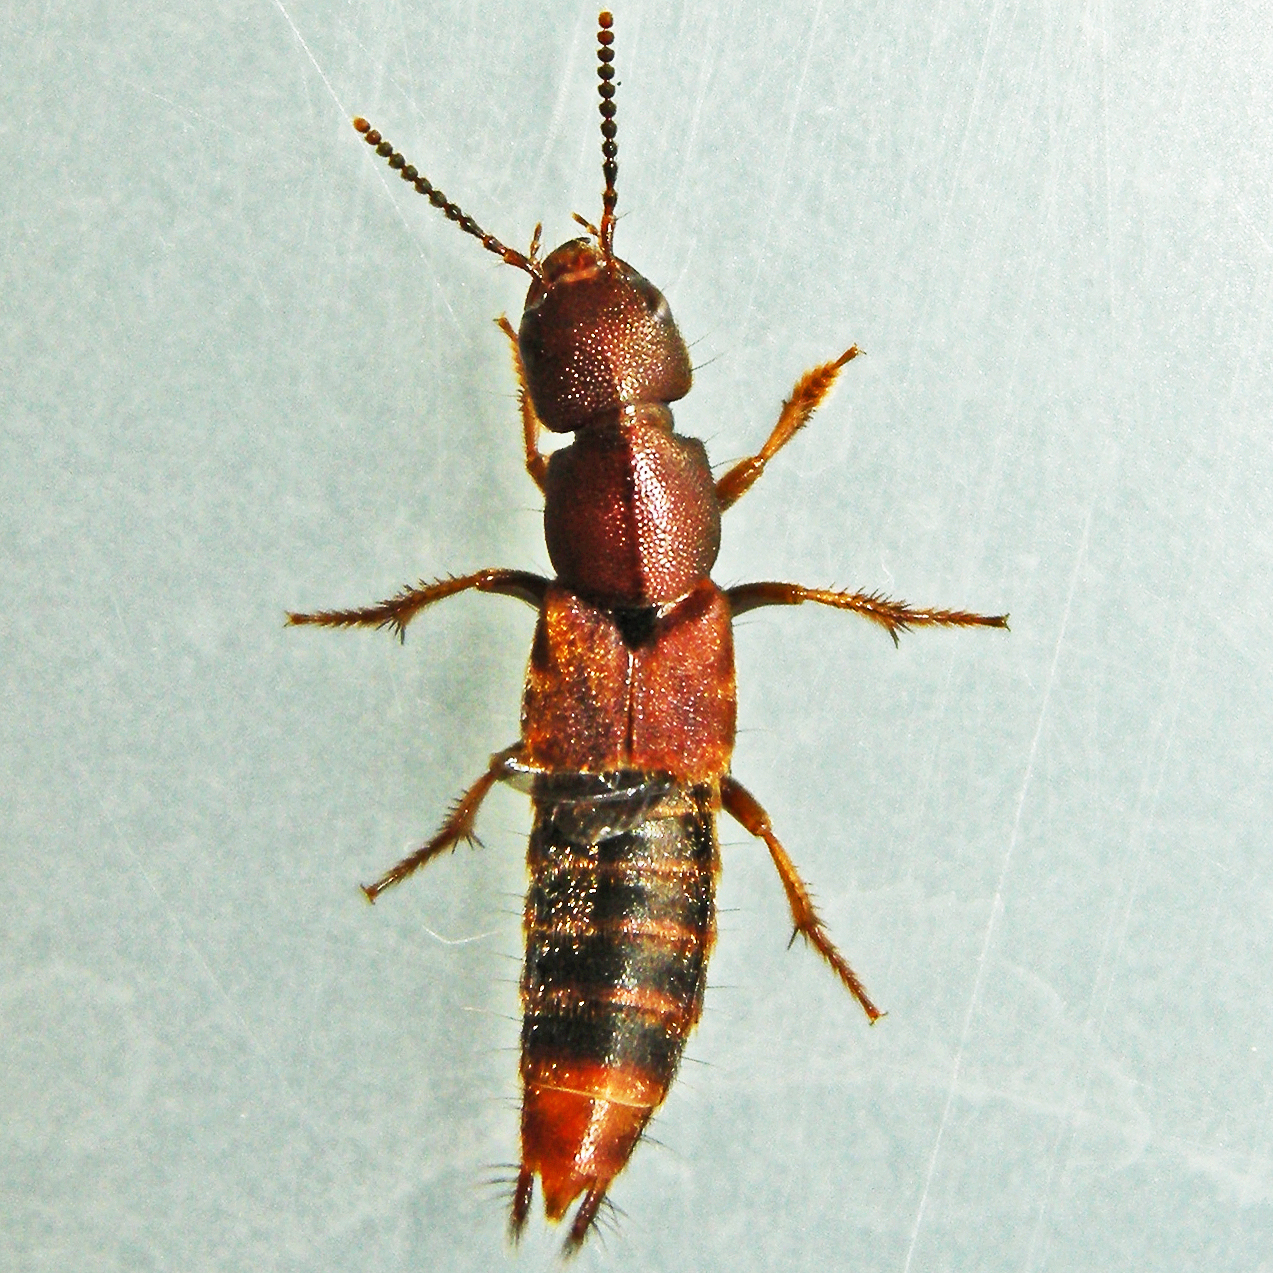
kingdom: Animalia
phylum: Arthropoda
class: Insecta
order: Coleoptera
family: Staphylinidae
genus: Platydracus
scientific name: Platydracus cinnamopterus
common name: Cinnamon rove beetle
